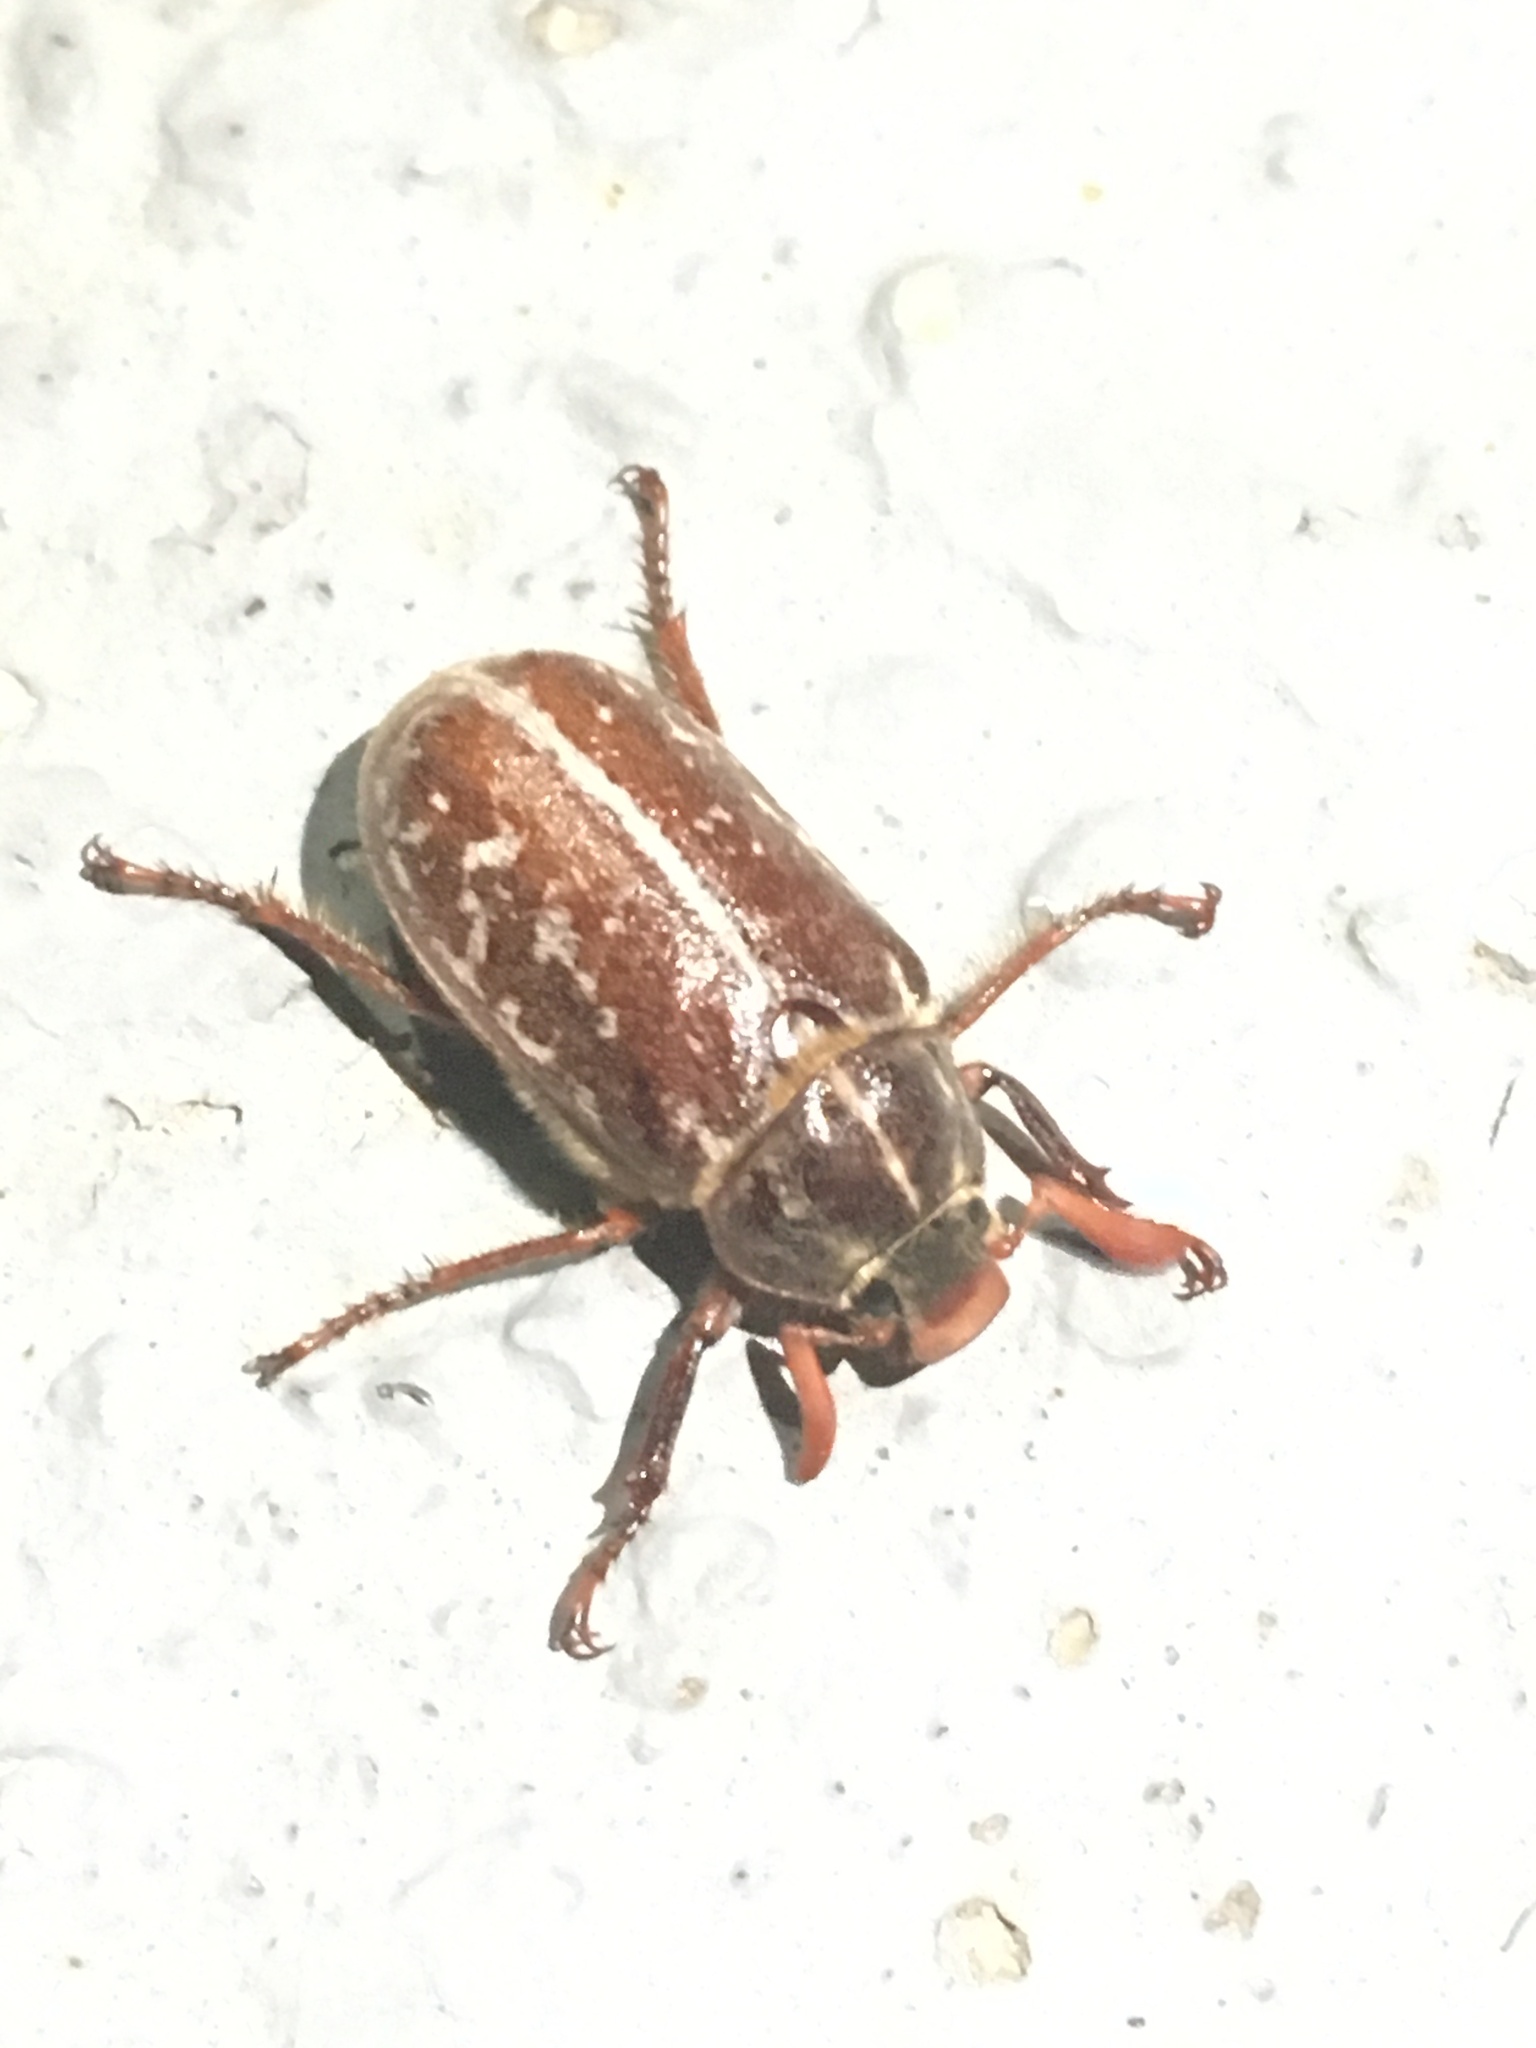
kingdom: Animalia
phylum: Arthropoda
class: Insecta
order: Coleoptera
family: Scarabaeidae
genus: Polyphylla
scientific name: Polyphylla variolosa
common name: Variegated june beetle
